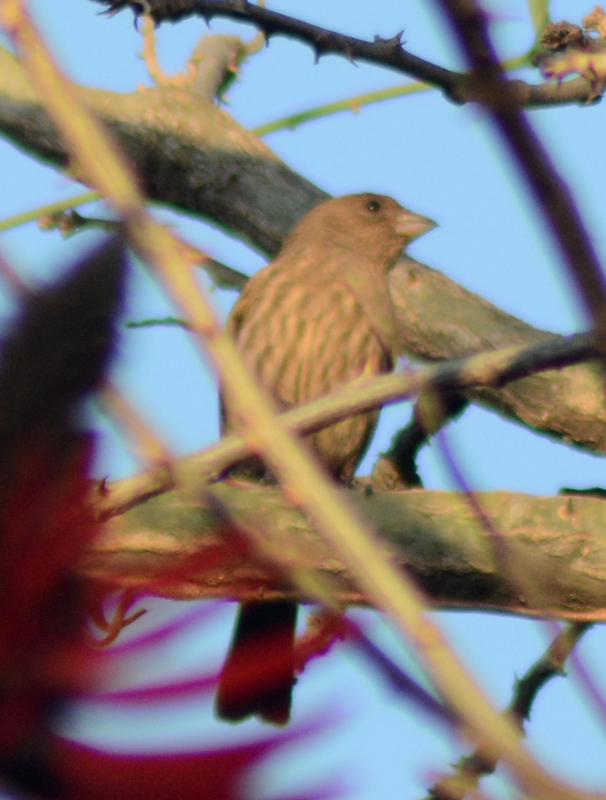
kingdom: Animalia
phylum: Chordata
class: Aves
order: Passeriformes
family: Fringillidae
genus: Haemorhous
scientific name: Haemorhous mexicanus
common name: House finch
